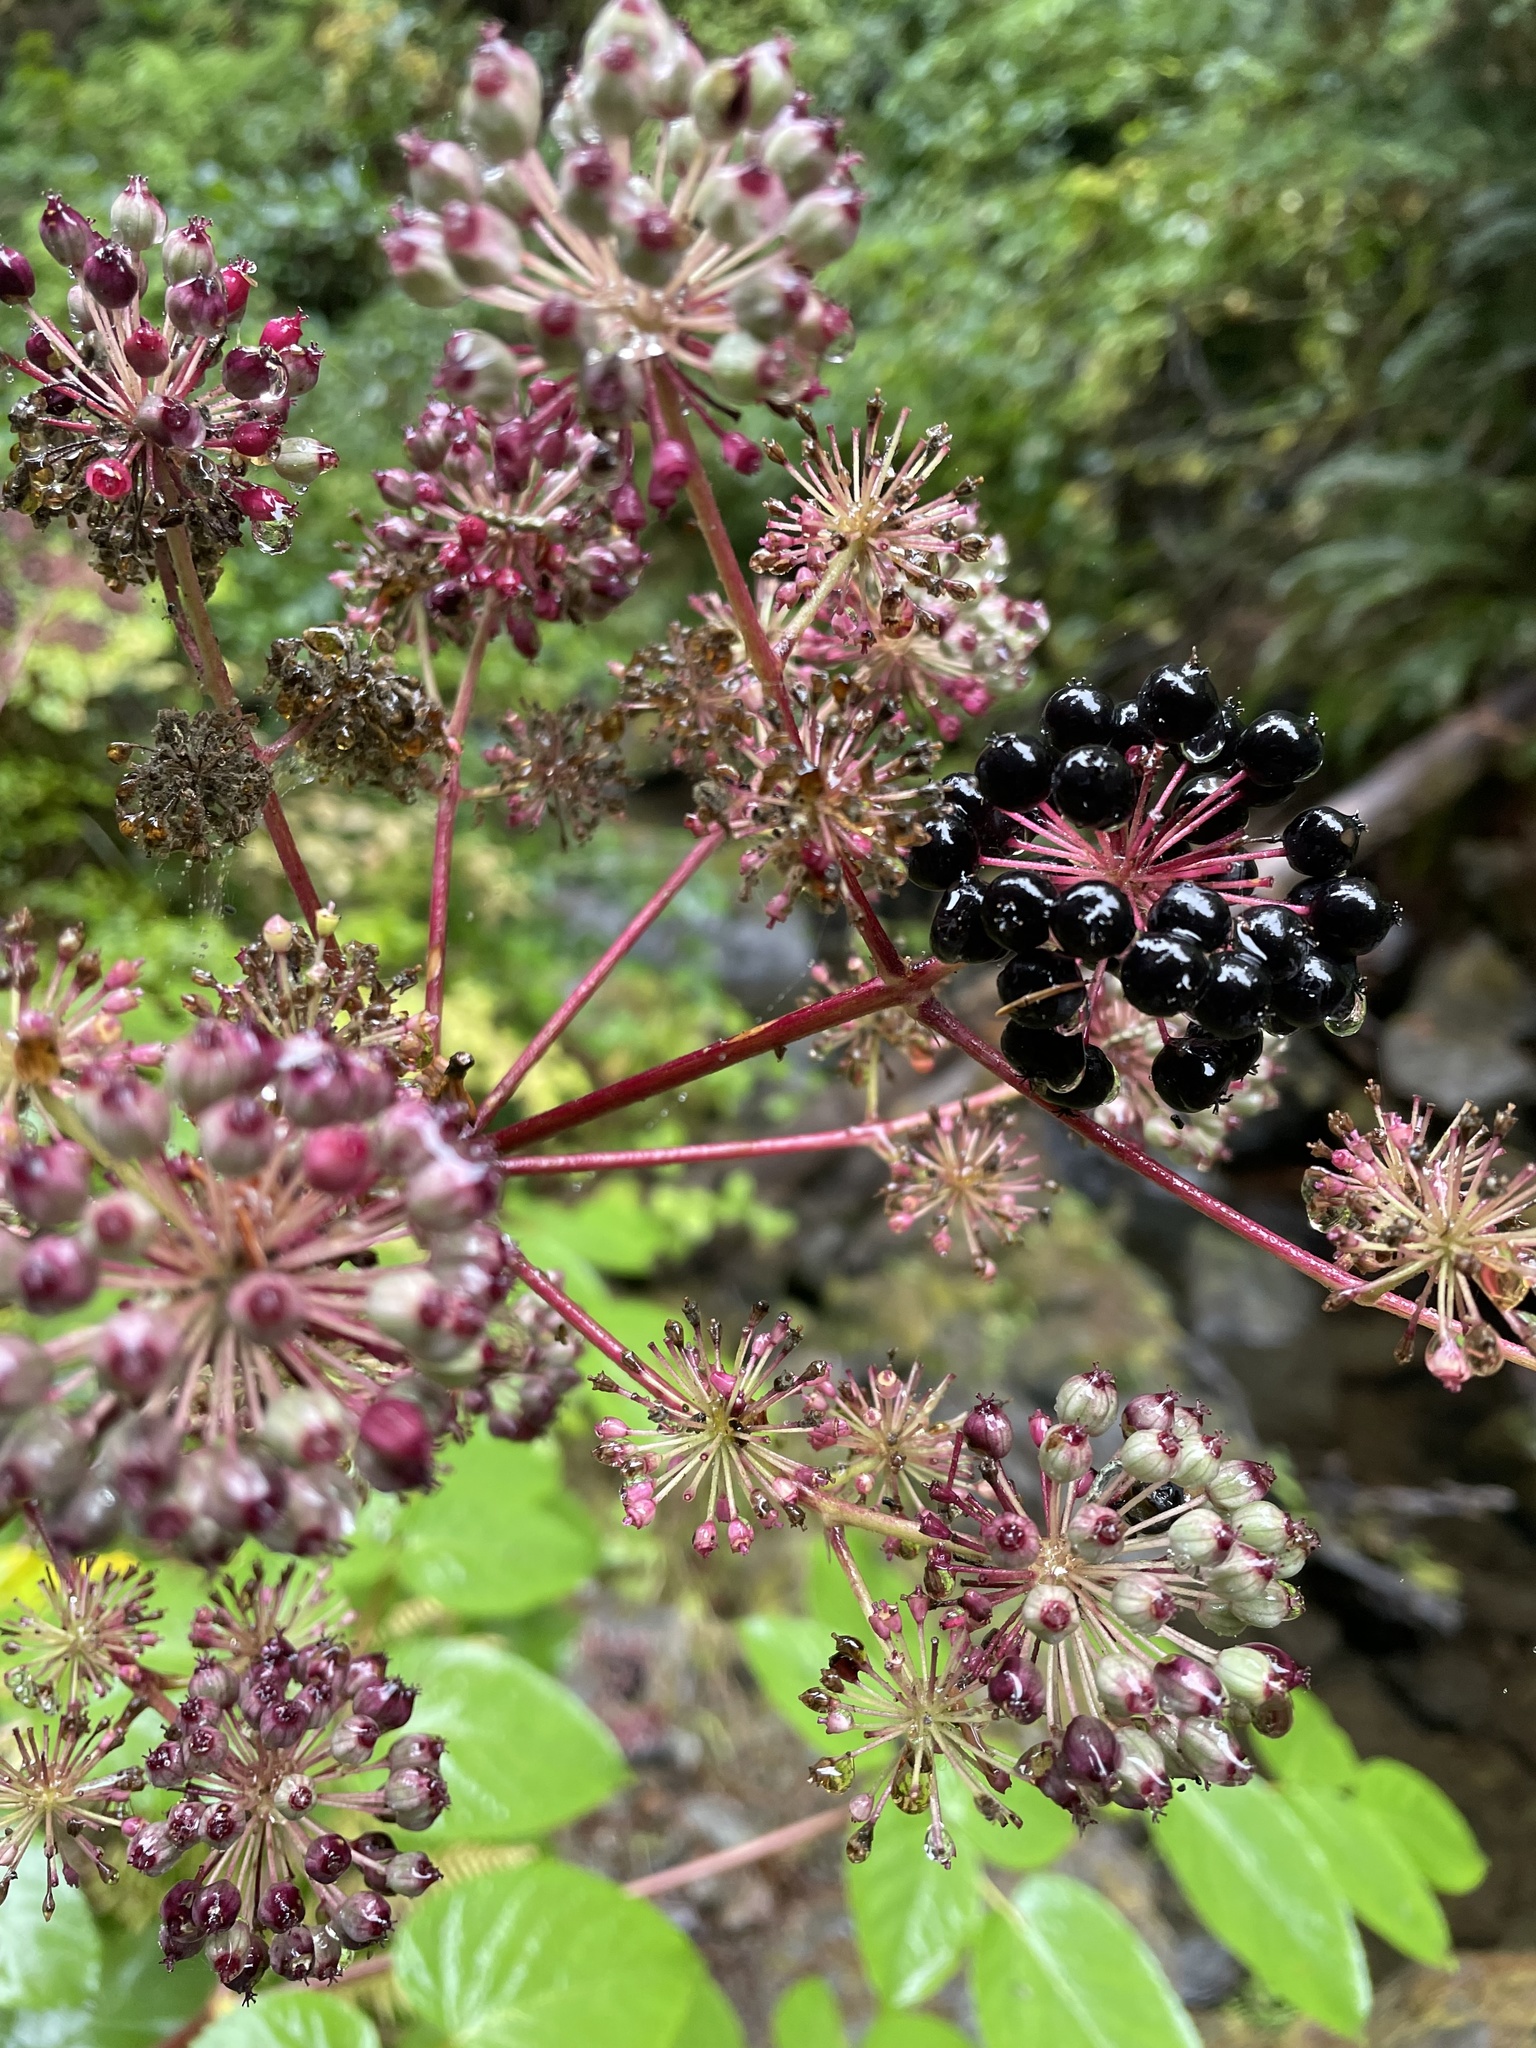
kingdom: Plantae
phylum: Tracheophyta
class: Magnoliopsida
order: Apiales
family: Araliaceae
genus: Aralia
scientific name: Aralia californica
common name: California-ginseng
